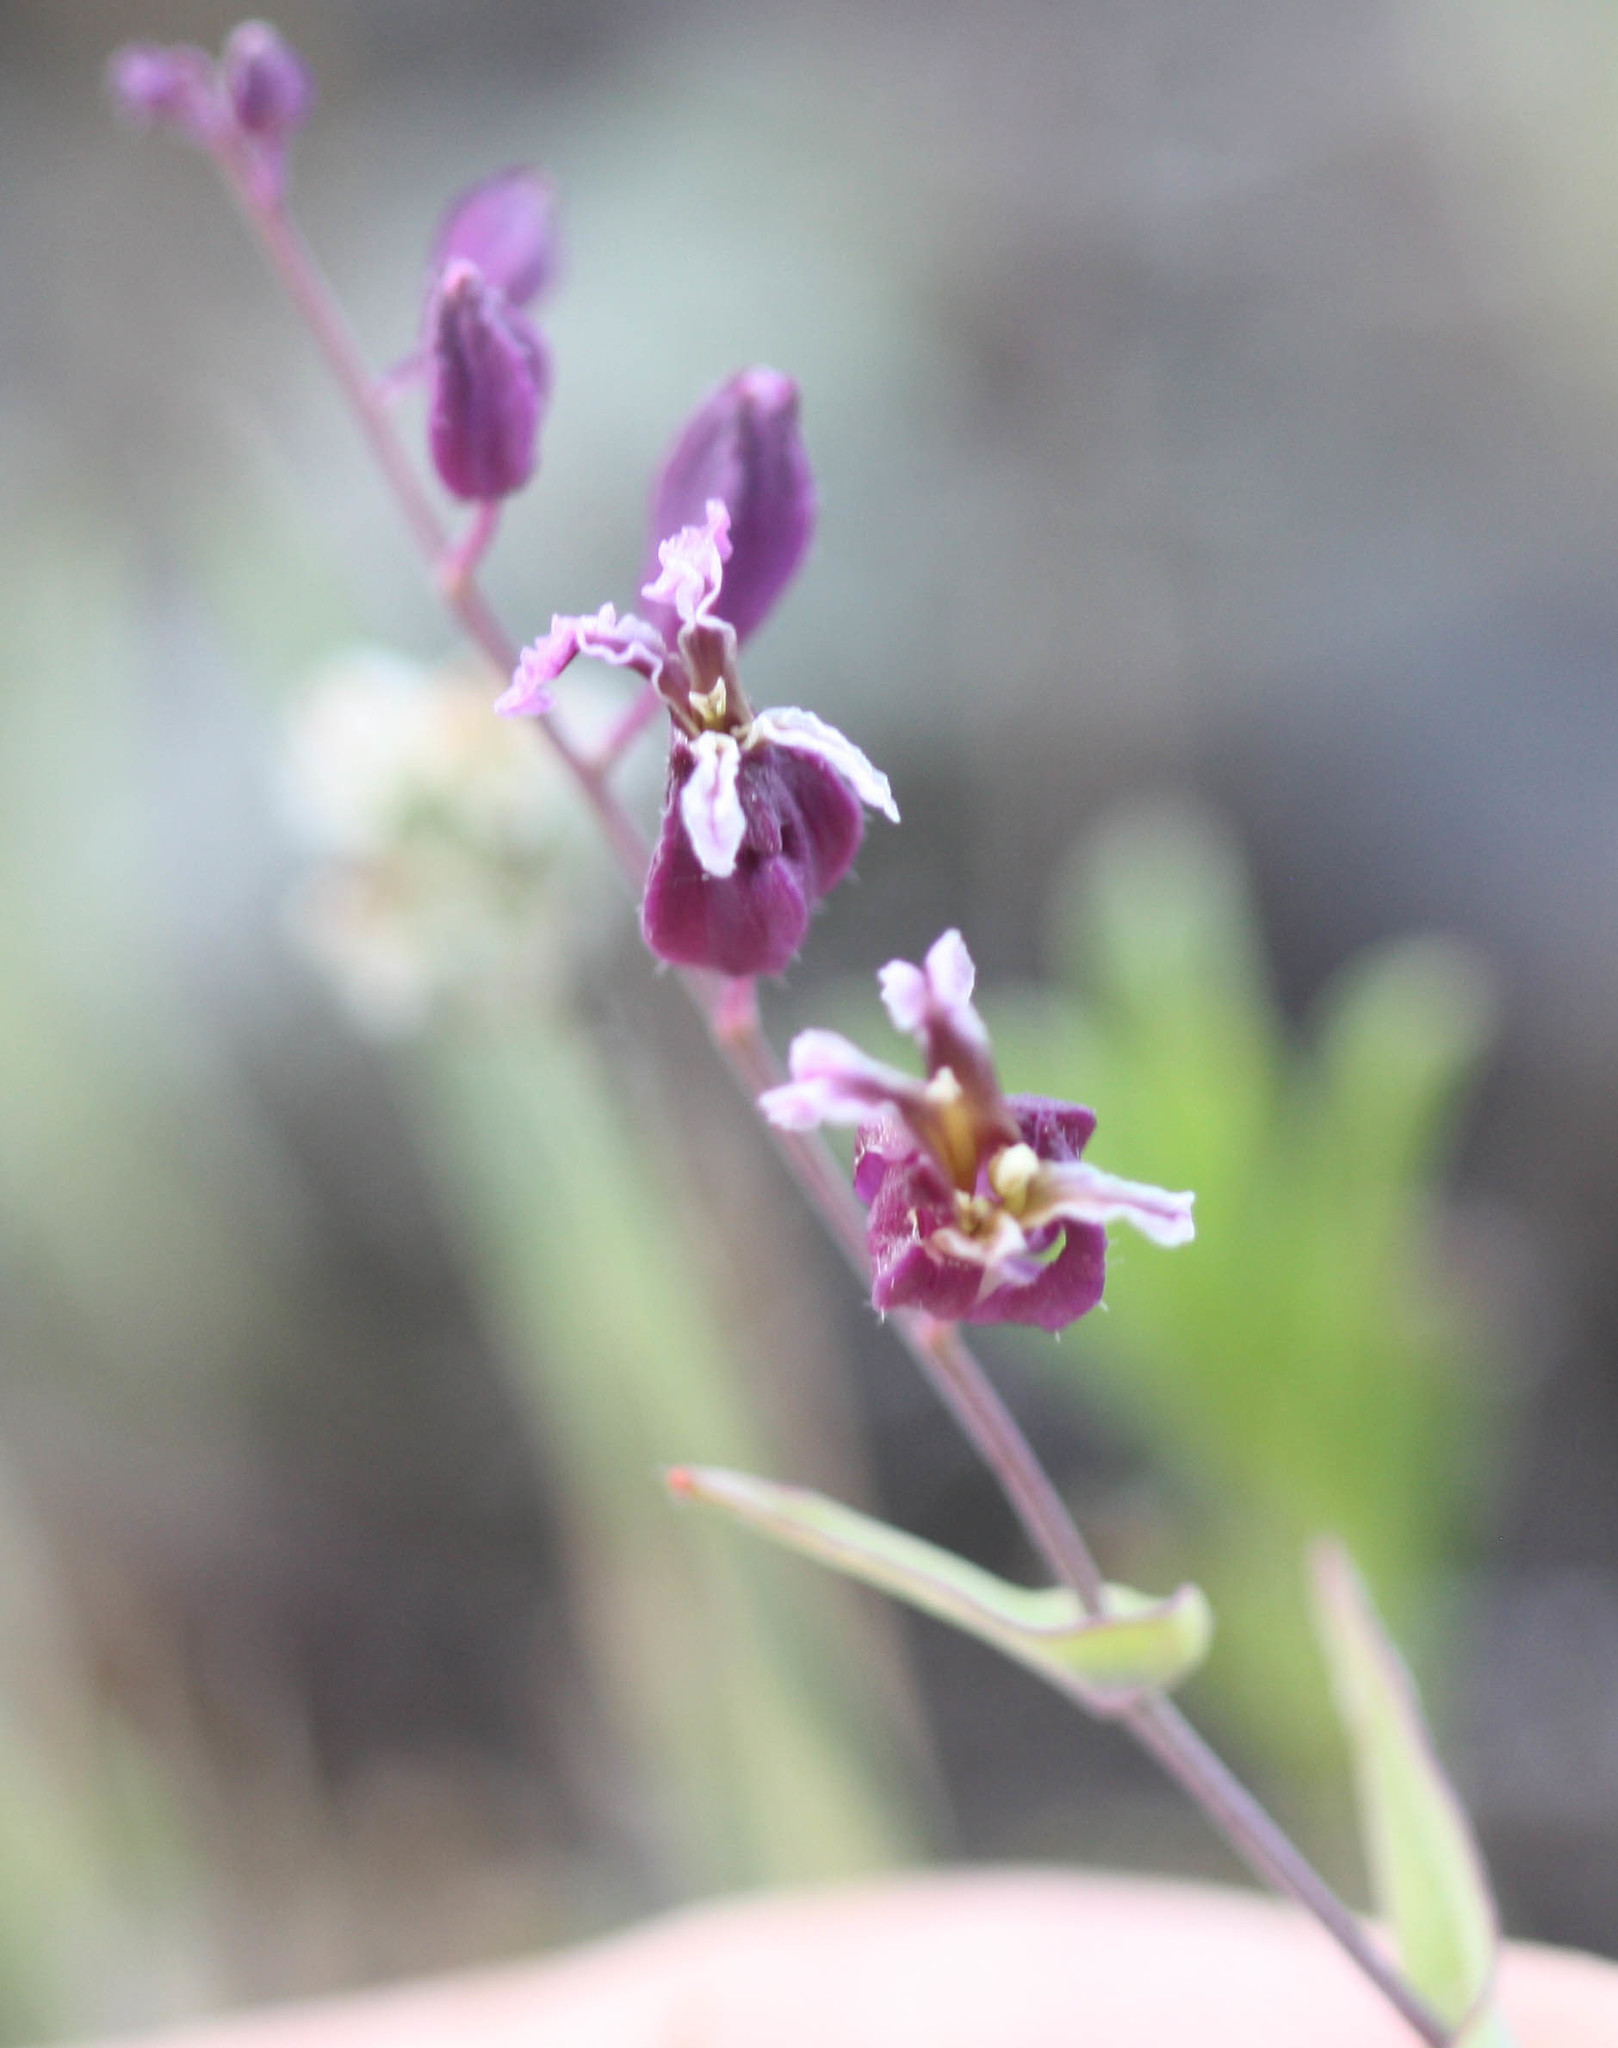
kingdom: Plantae
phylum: Tracheophyta
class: Magnoliopsida
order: Brassicales
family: Brassicaceae
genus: Streptanthus
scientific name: Streptanthus glandulosus
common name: Jewel-flower
